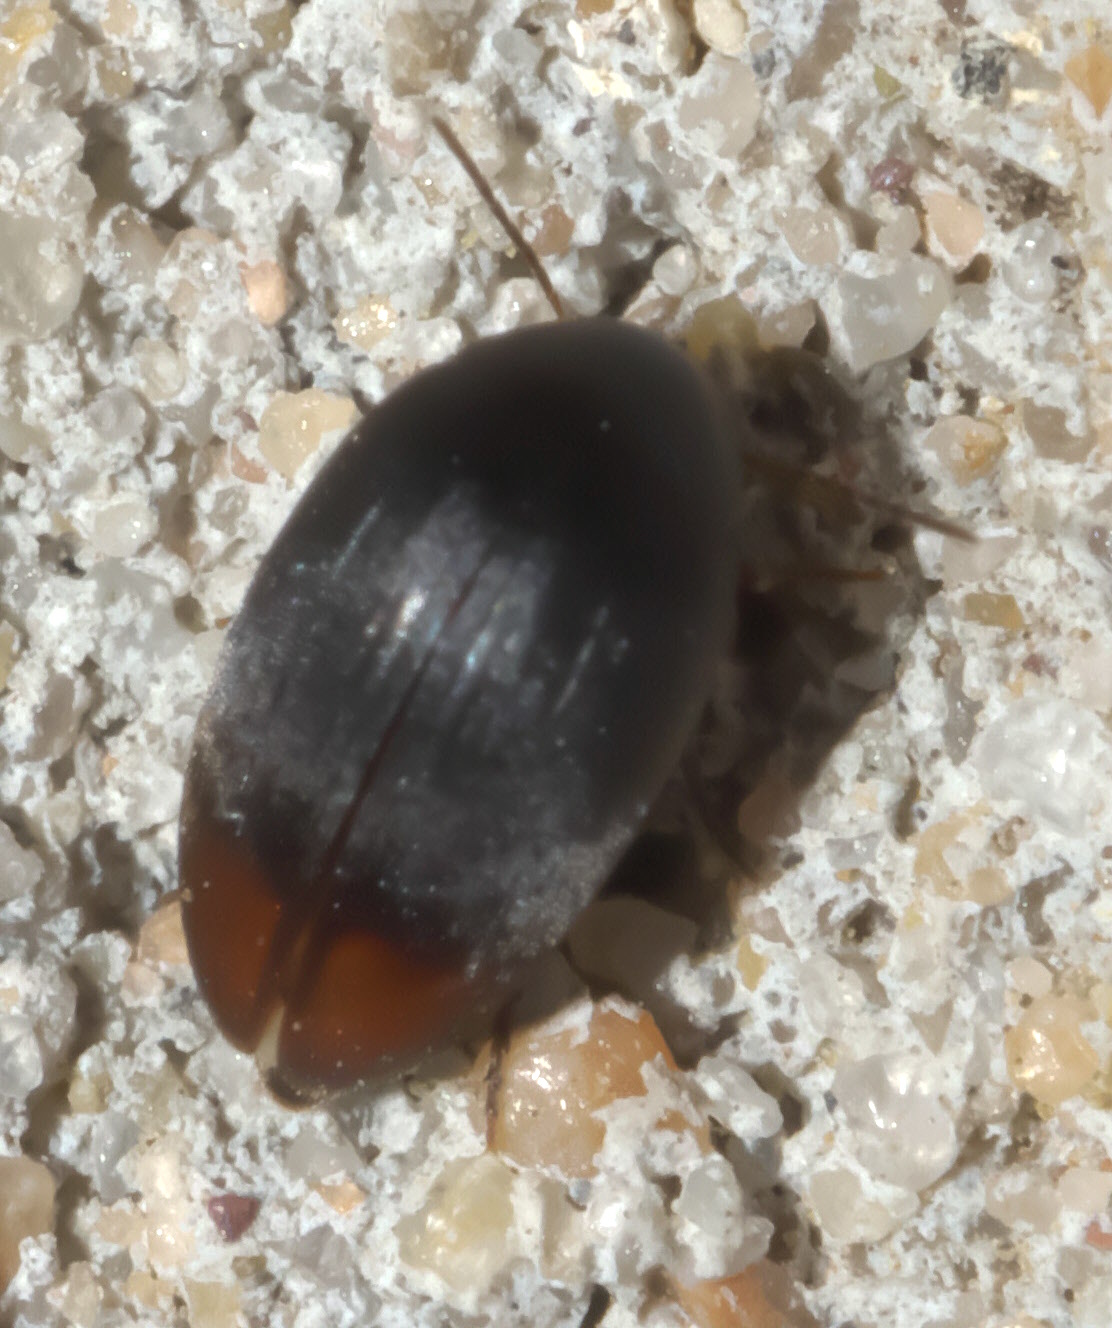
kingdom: Animalia
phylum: Arthropoda
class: Insecta
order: Coleoptera
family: Eucinetidae
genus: Eucinetus
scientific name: Eucinetus haemorrhoidalis
